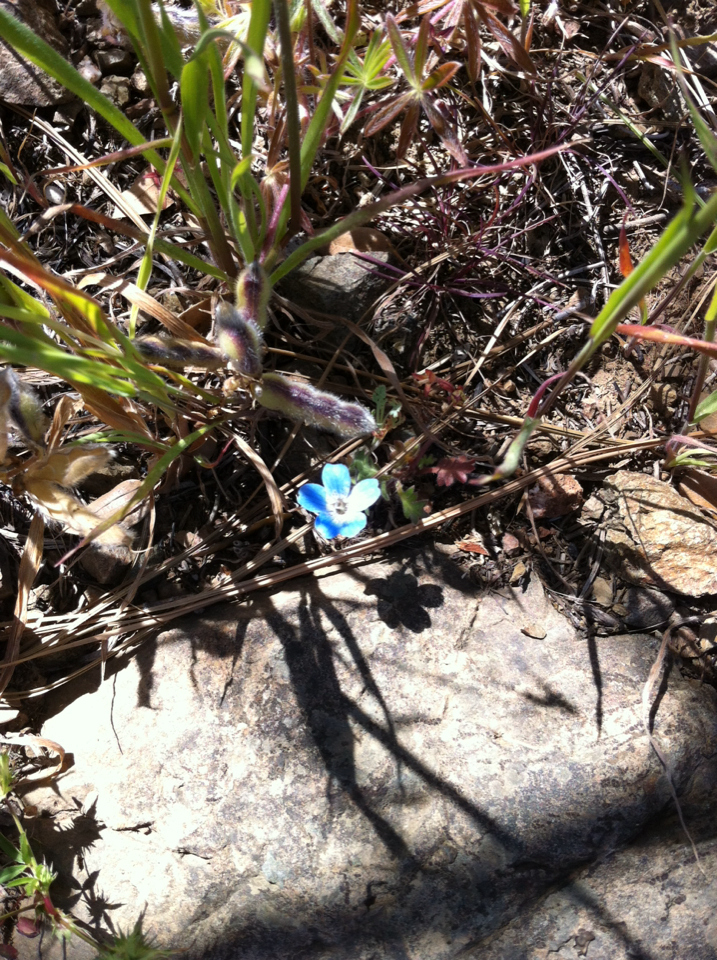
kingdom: Plantae
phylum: Tracheophyta
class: Magnoliopsida
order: Boraginales
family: Hydrophyllaceae
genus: Nemophila
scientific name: Nemophila menziesii
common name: Baby's-blue-eyes
